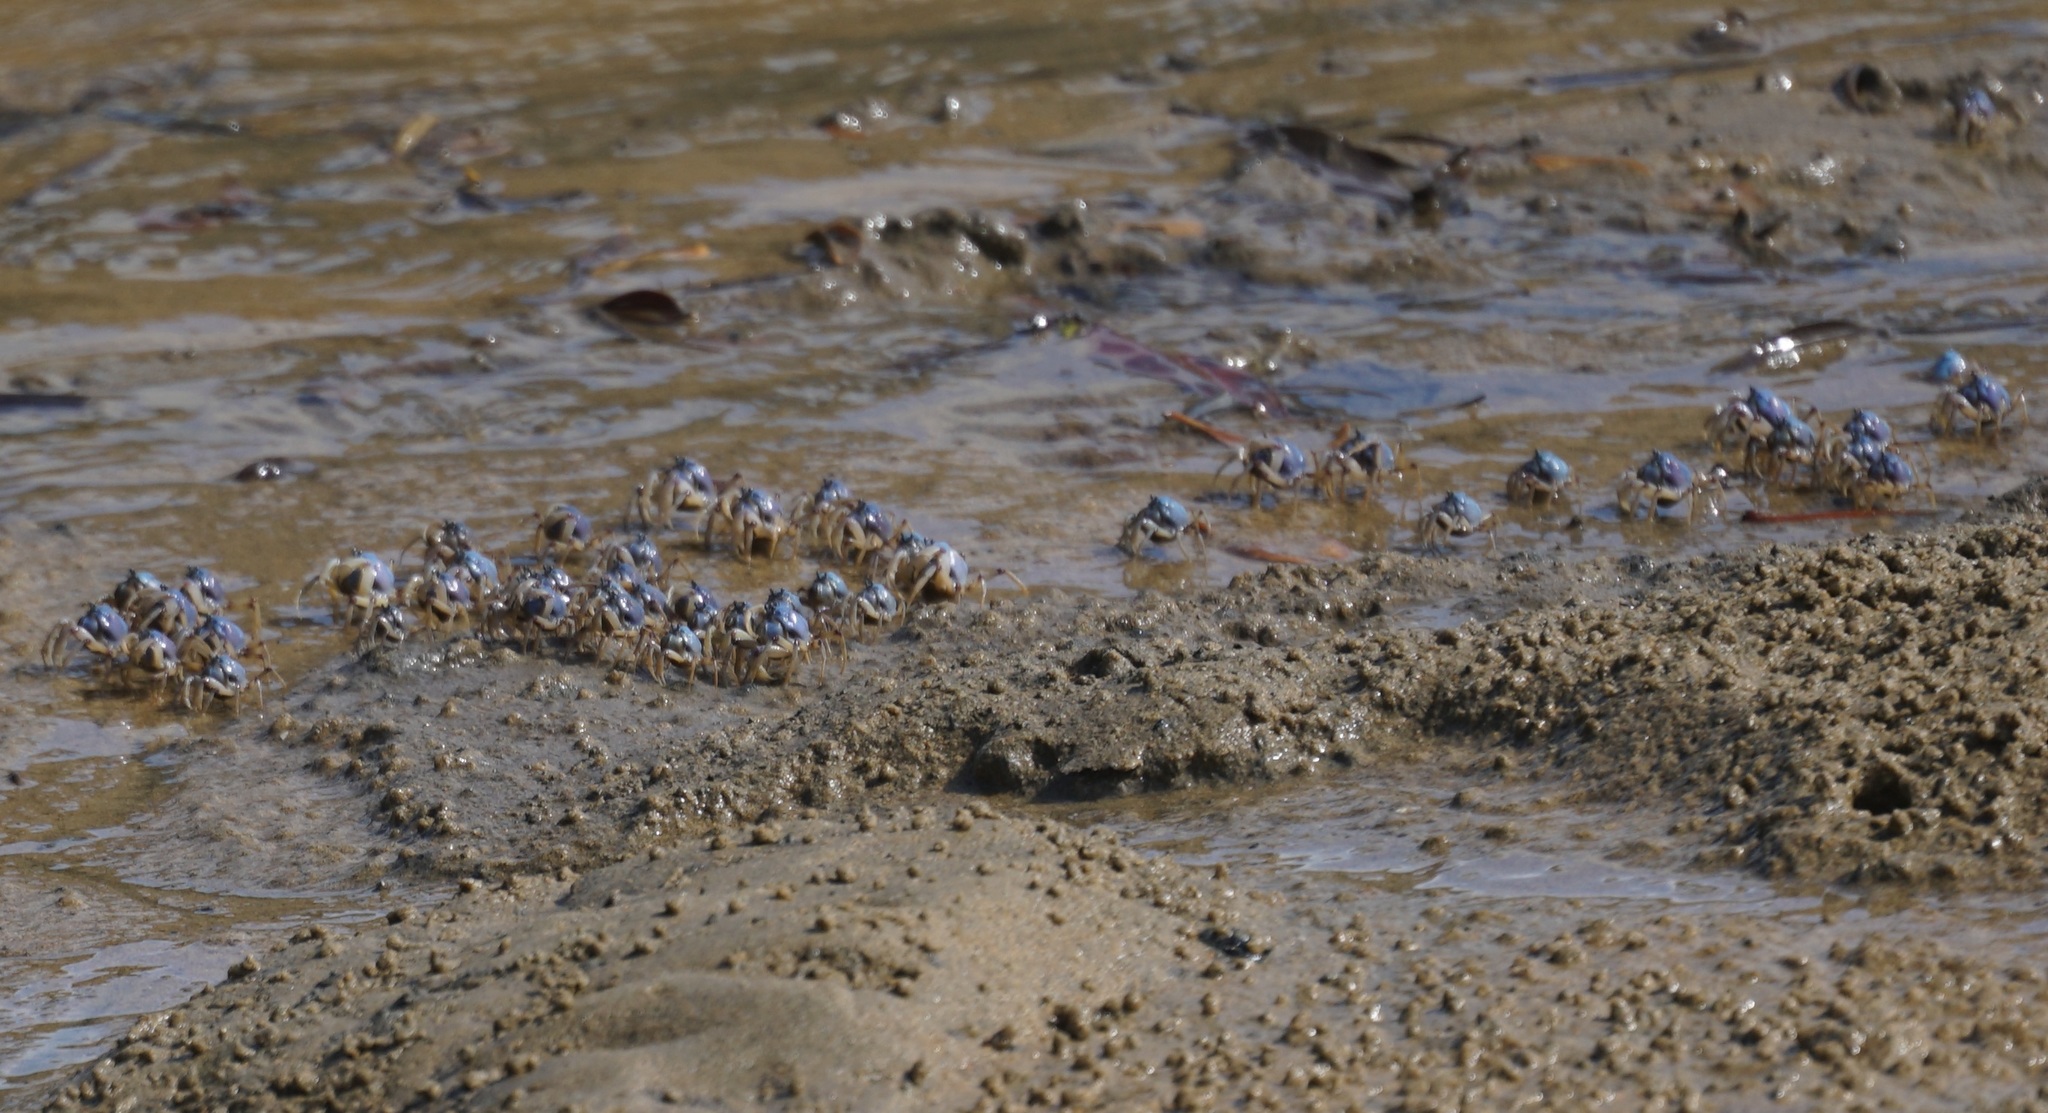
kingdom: Animalia
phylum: Arthropoda
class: Malacostraca
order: Decapoda
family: Mictyridae
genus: Mictyris
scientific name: Mictyris longicarpus
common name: Light-blue soldier crab
